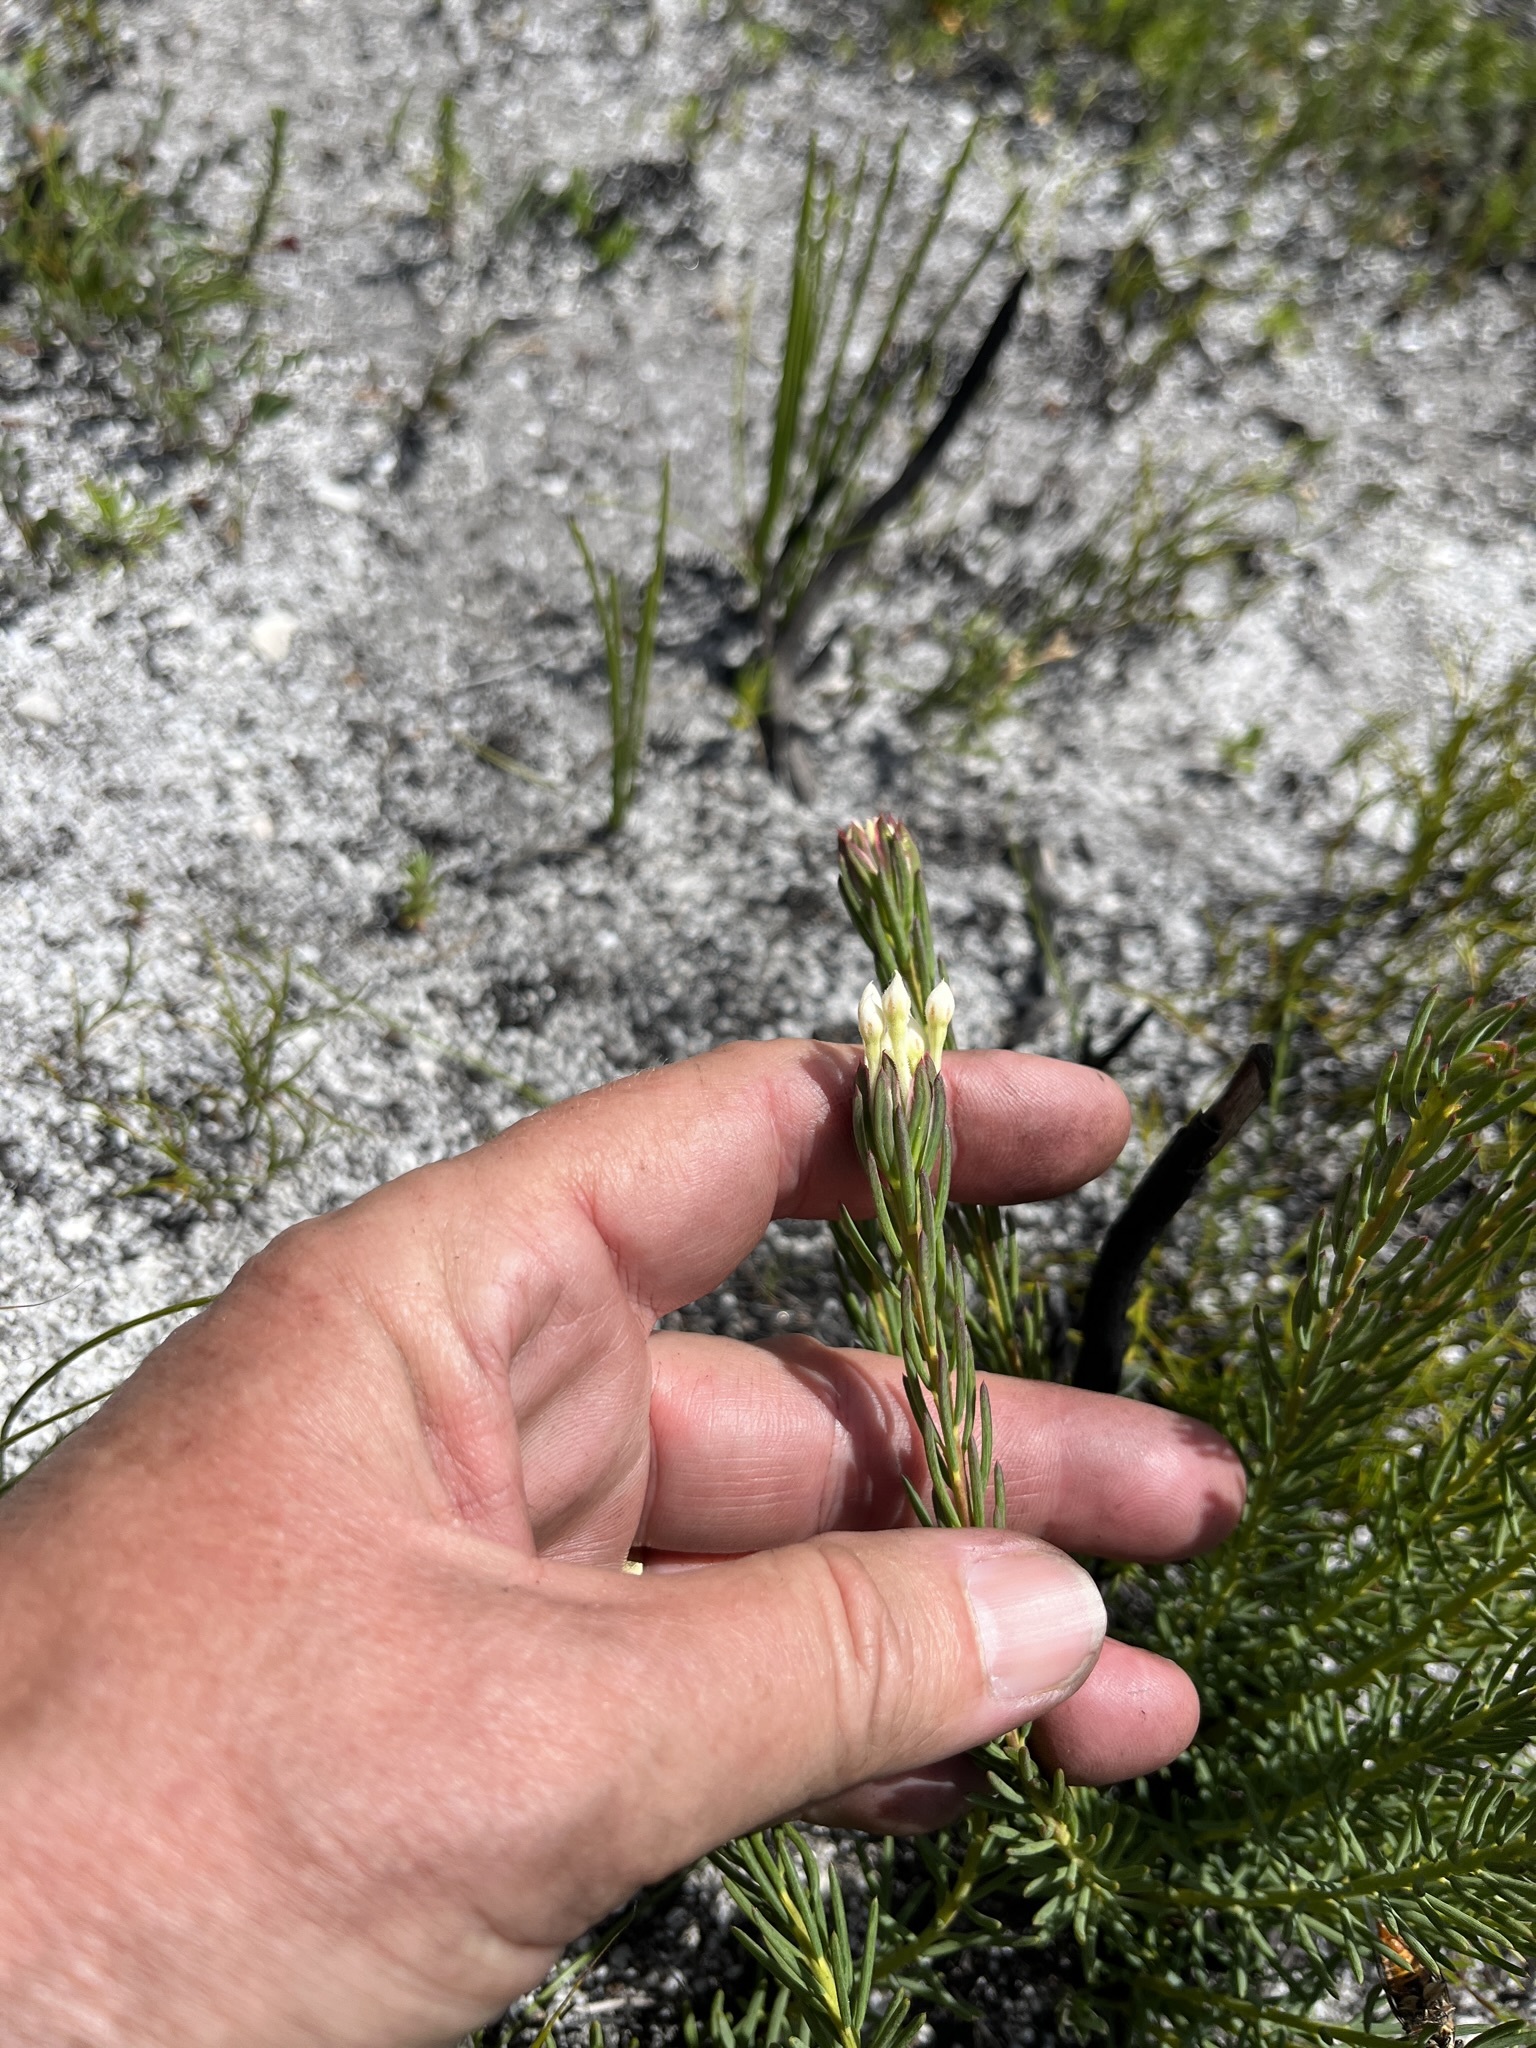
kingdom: Plantae
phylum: Tracheophyta
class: Magnoliopsida
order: Malvales
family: Thymelaeaceae
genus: Gnidia
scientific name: Gnidia pinifolia
